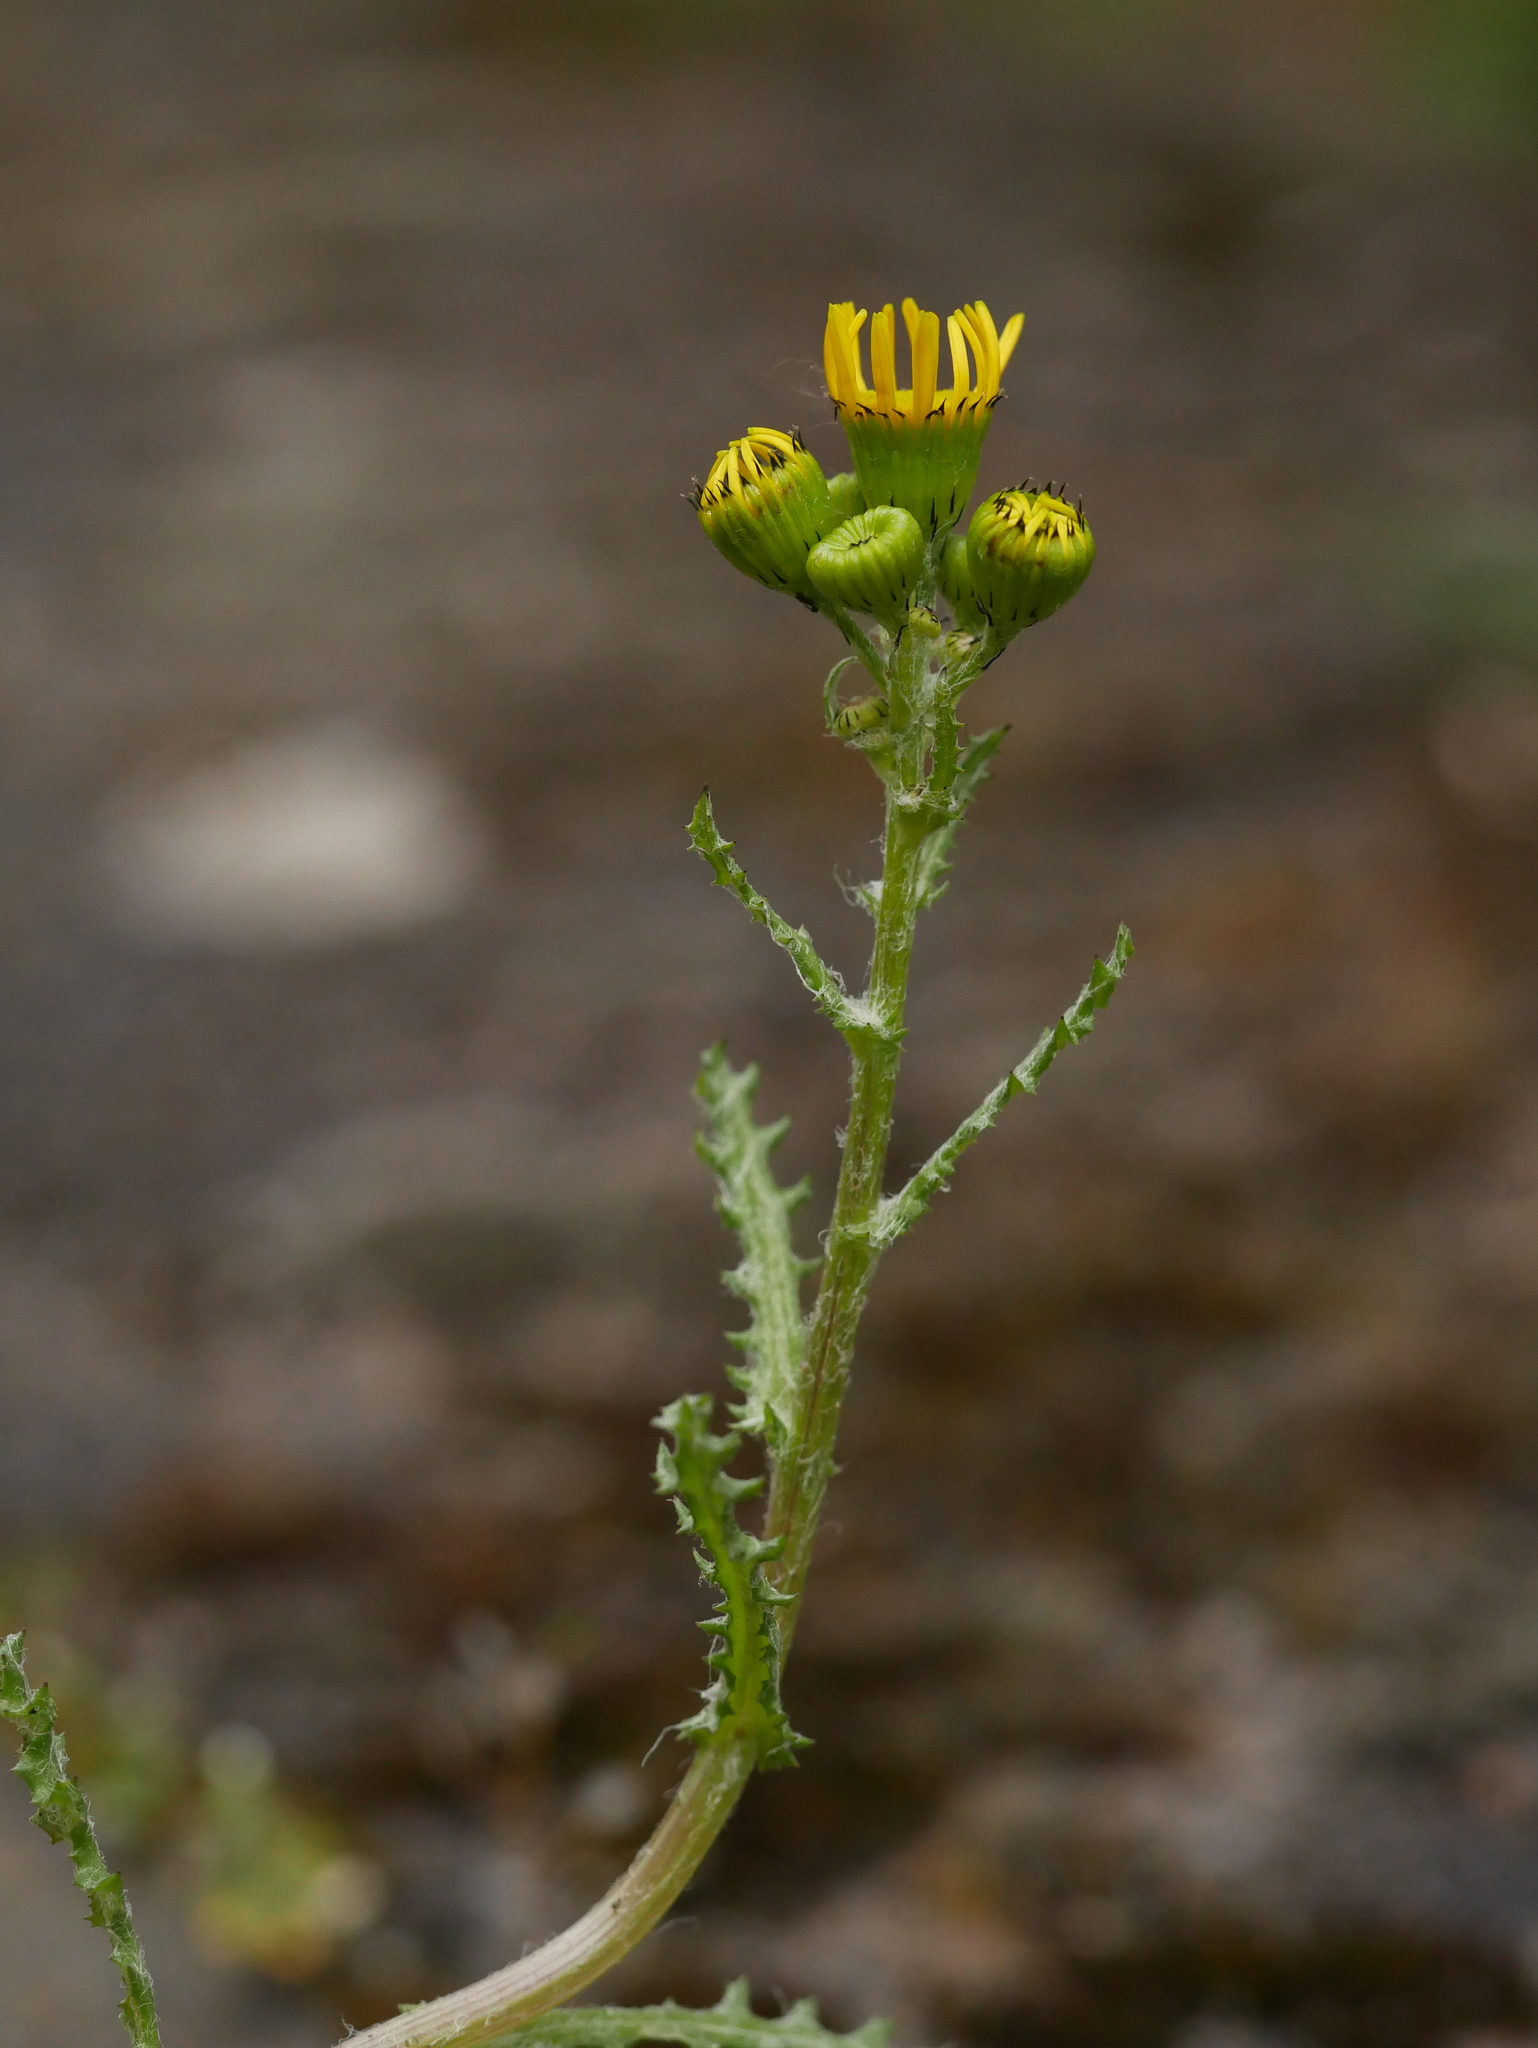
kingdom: Plantae
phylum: Tracheophyta
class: Magnoliopsida
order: Asterales
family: Asteraceae
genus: Senecio
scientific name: Senecio vernalis
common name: Eastern groundsel
